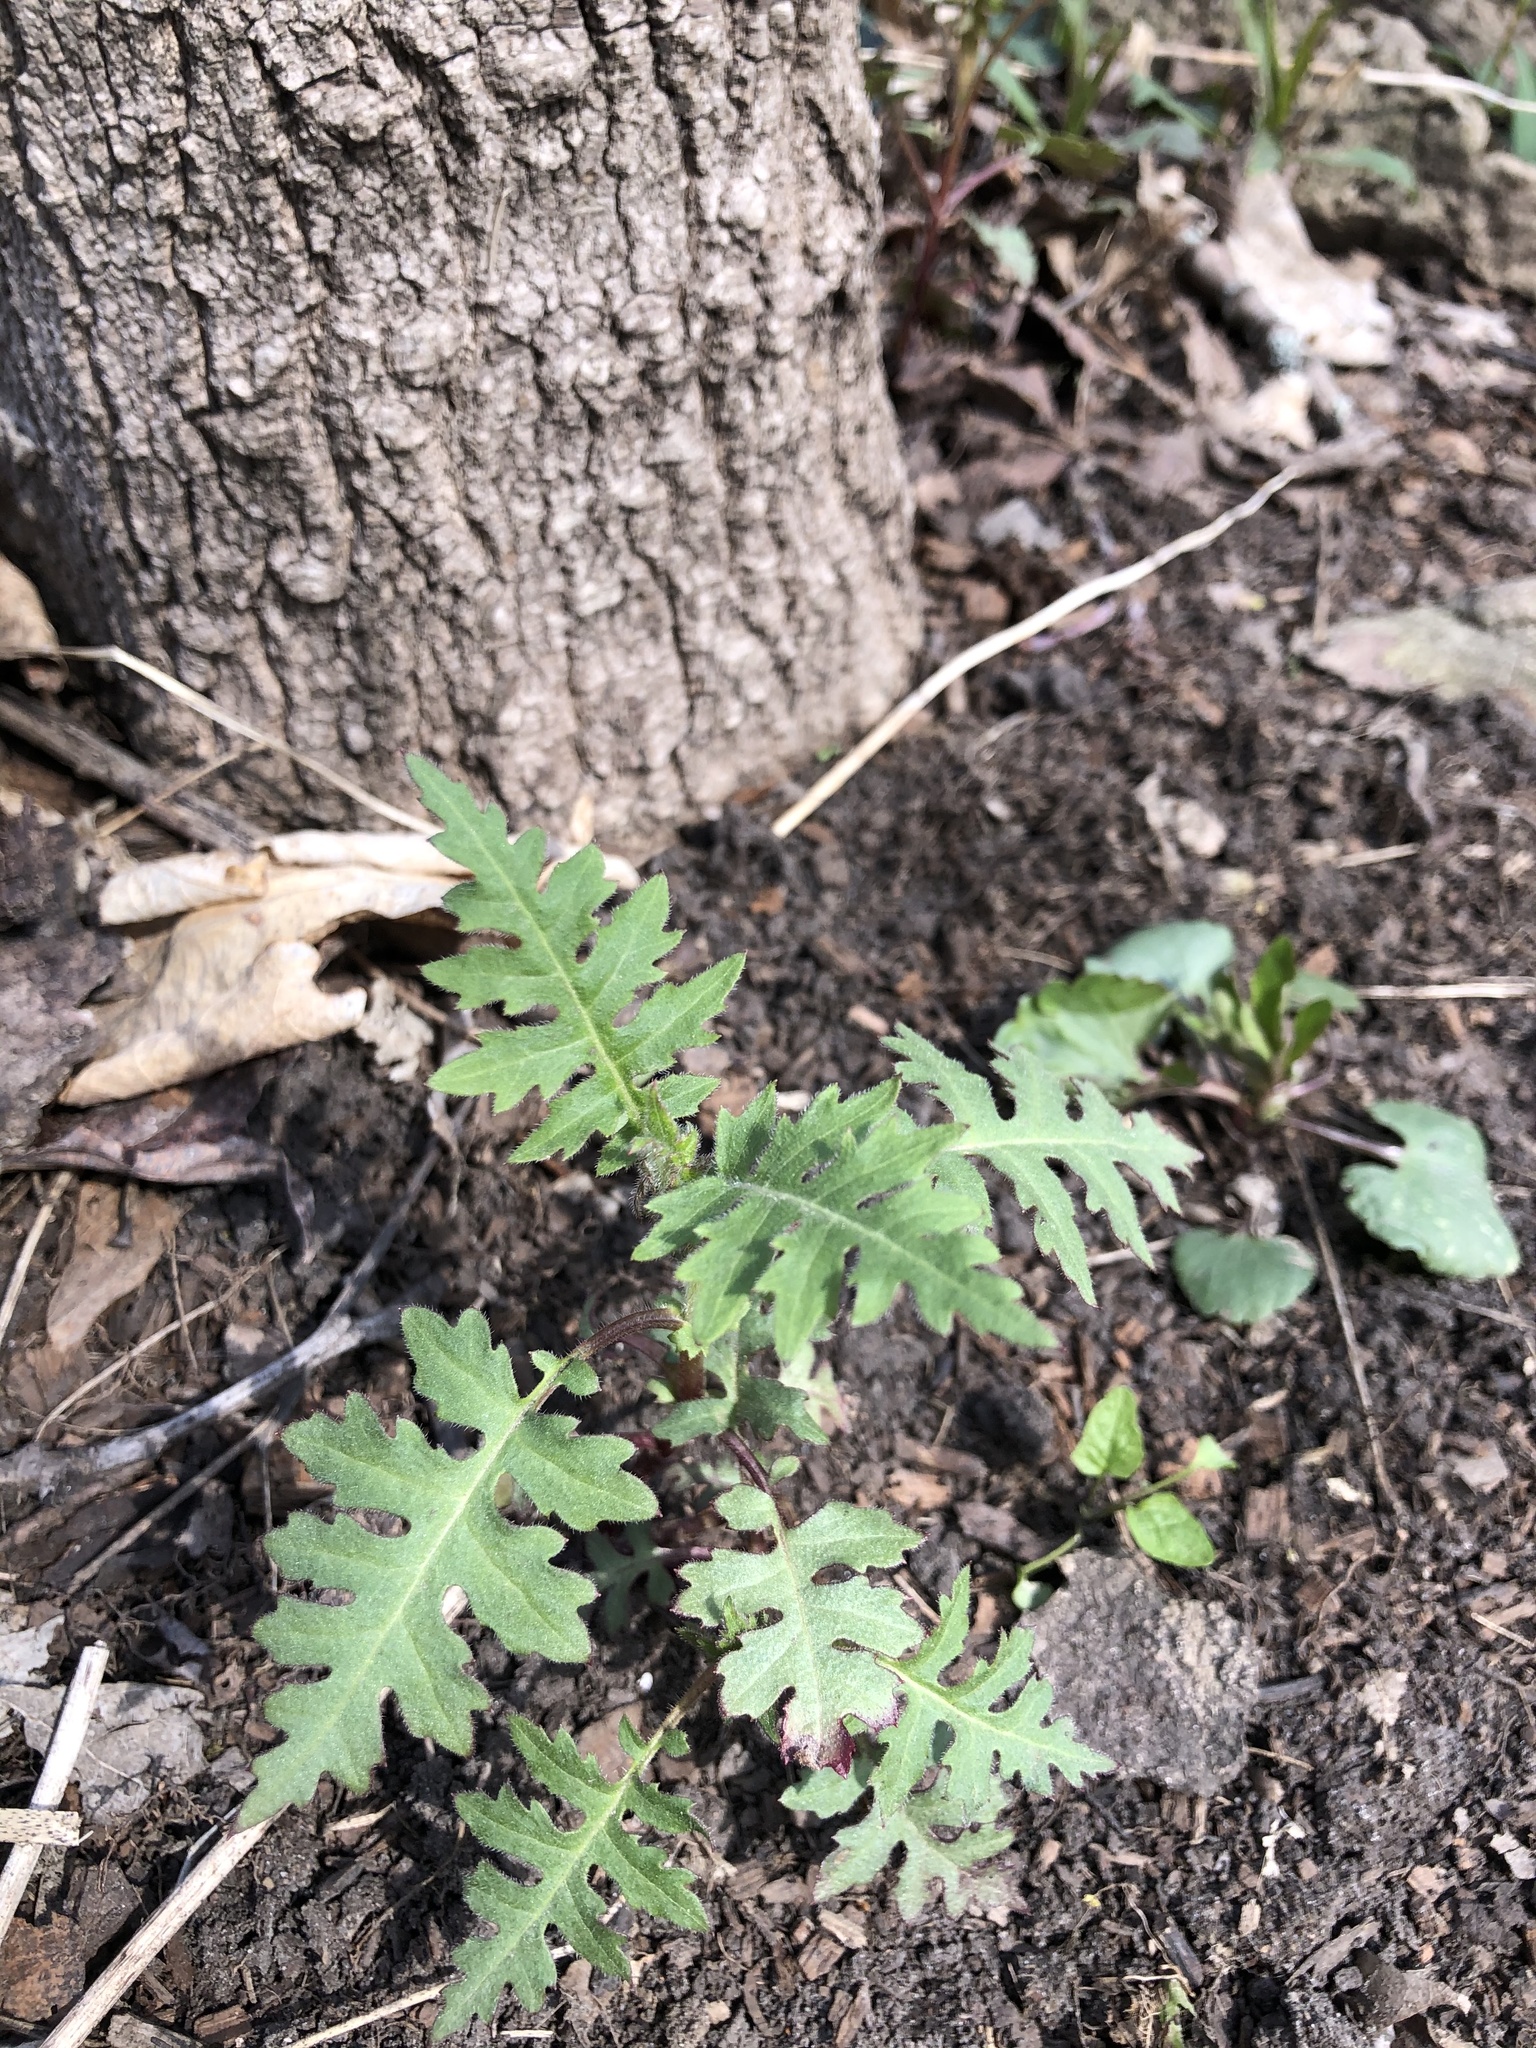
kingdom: Plantae
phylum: Tracheophyta
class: Magnoliopsida
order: Asterales
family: Asteraceae
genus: Polymnia
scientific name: Polymnia canadensis
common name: Pale-flowered leafcup
